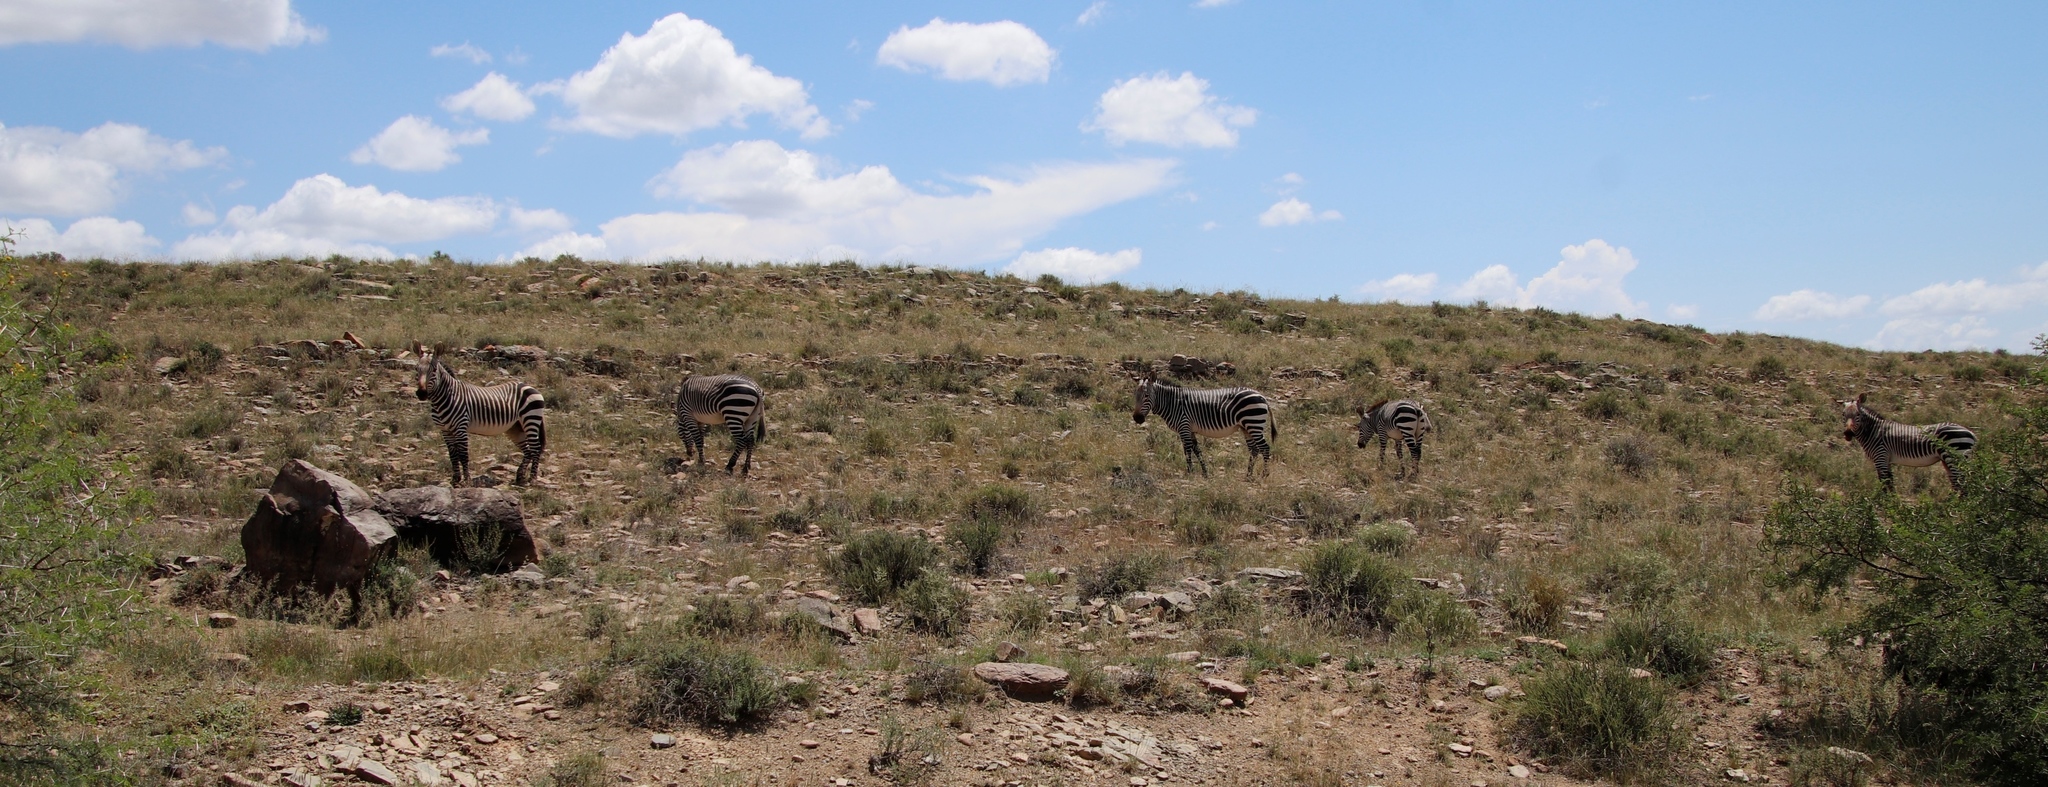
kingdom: Animalia
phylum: Chordata
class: Mammalia
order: Perissodactyla
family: Equidae
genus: Equus
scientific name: Equus zebra
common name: Mountain zebra
